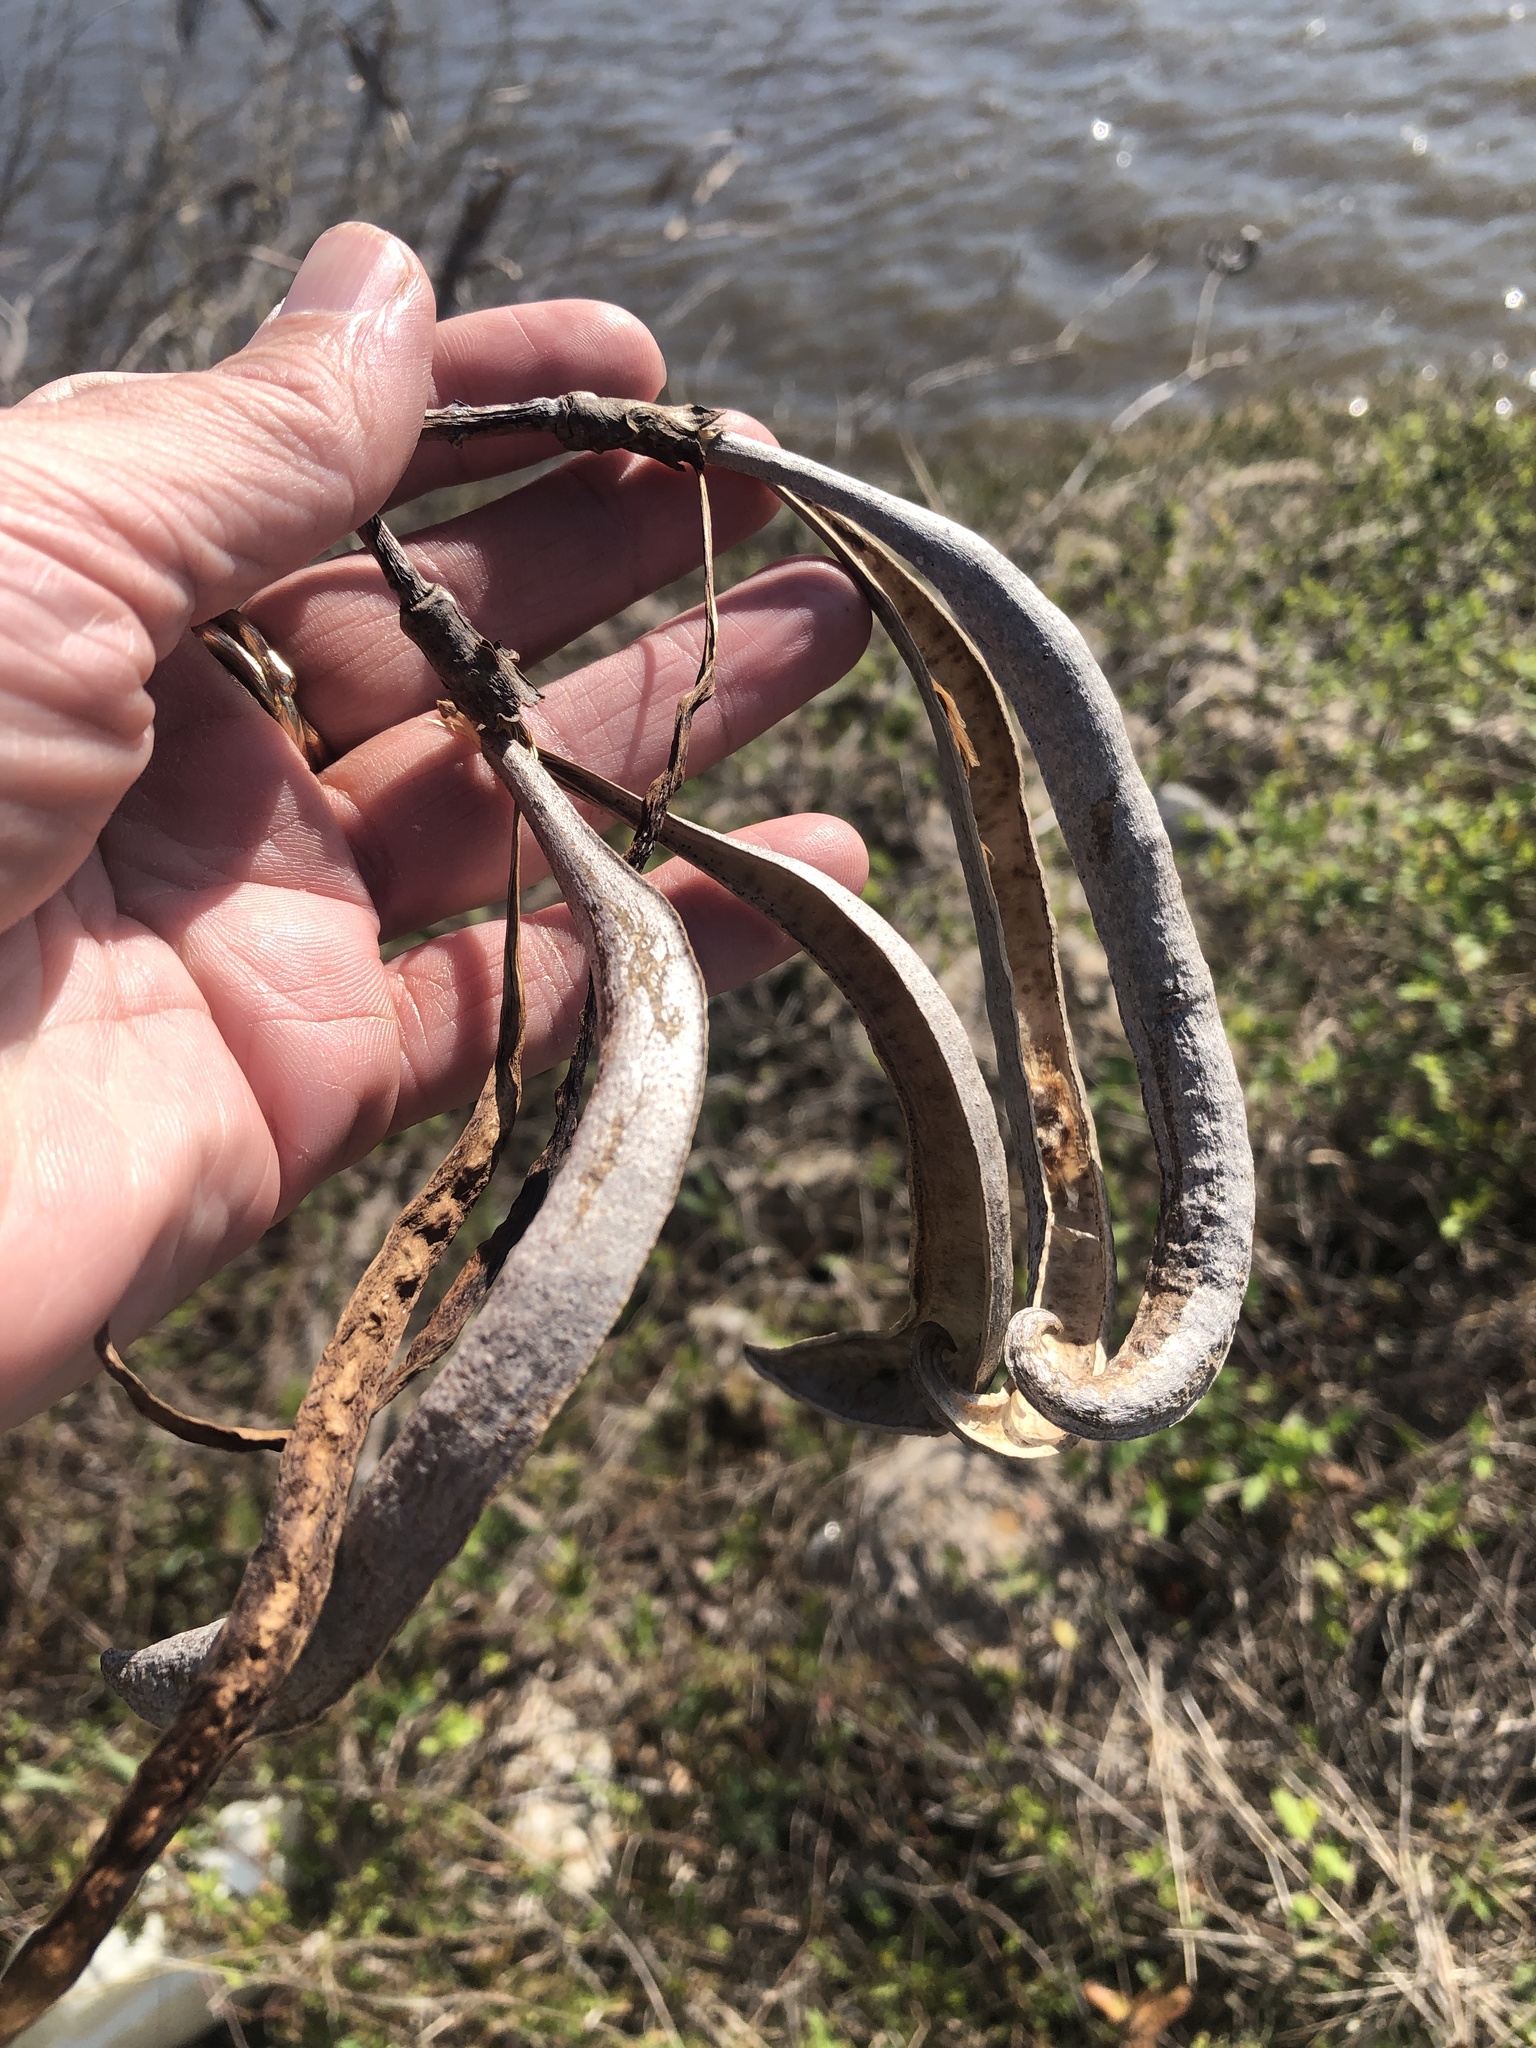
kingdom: Plantae
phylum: Tracheophyta
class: Magnoliopsida
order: Lamiales
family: Bignoniaceae
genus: Campsis
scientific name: Campsis radicans
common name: Trumpet-creeper
